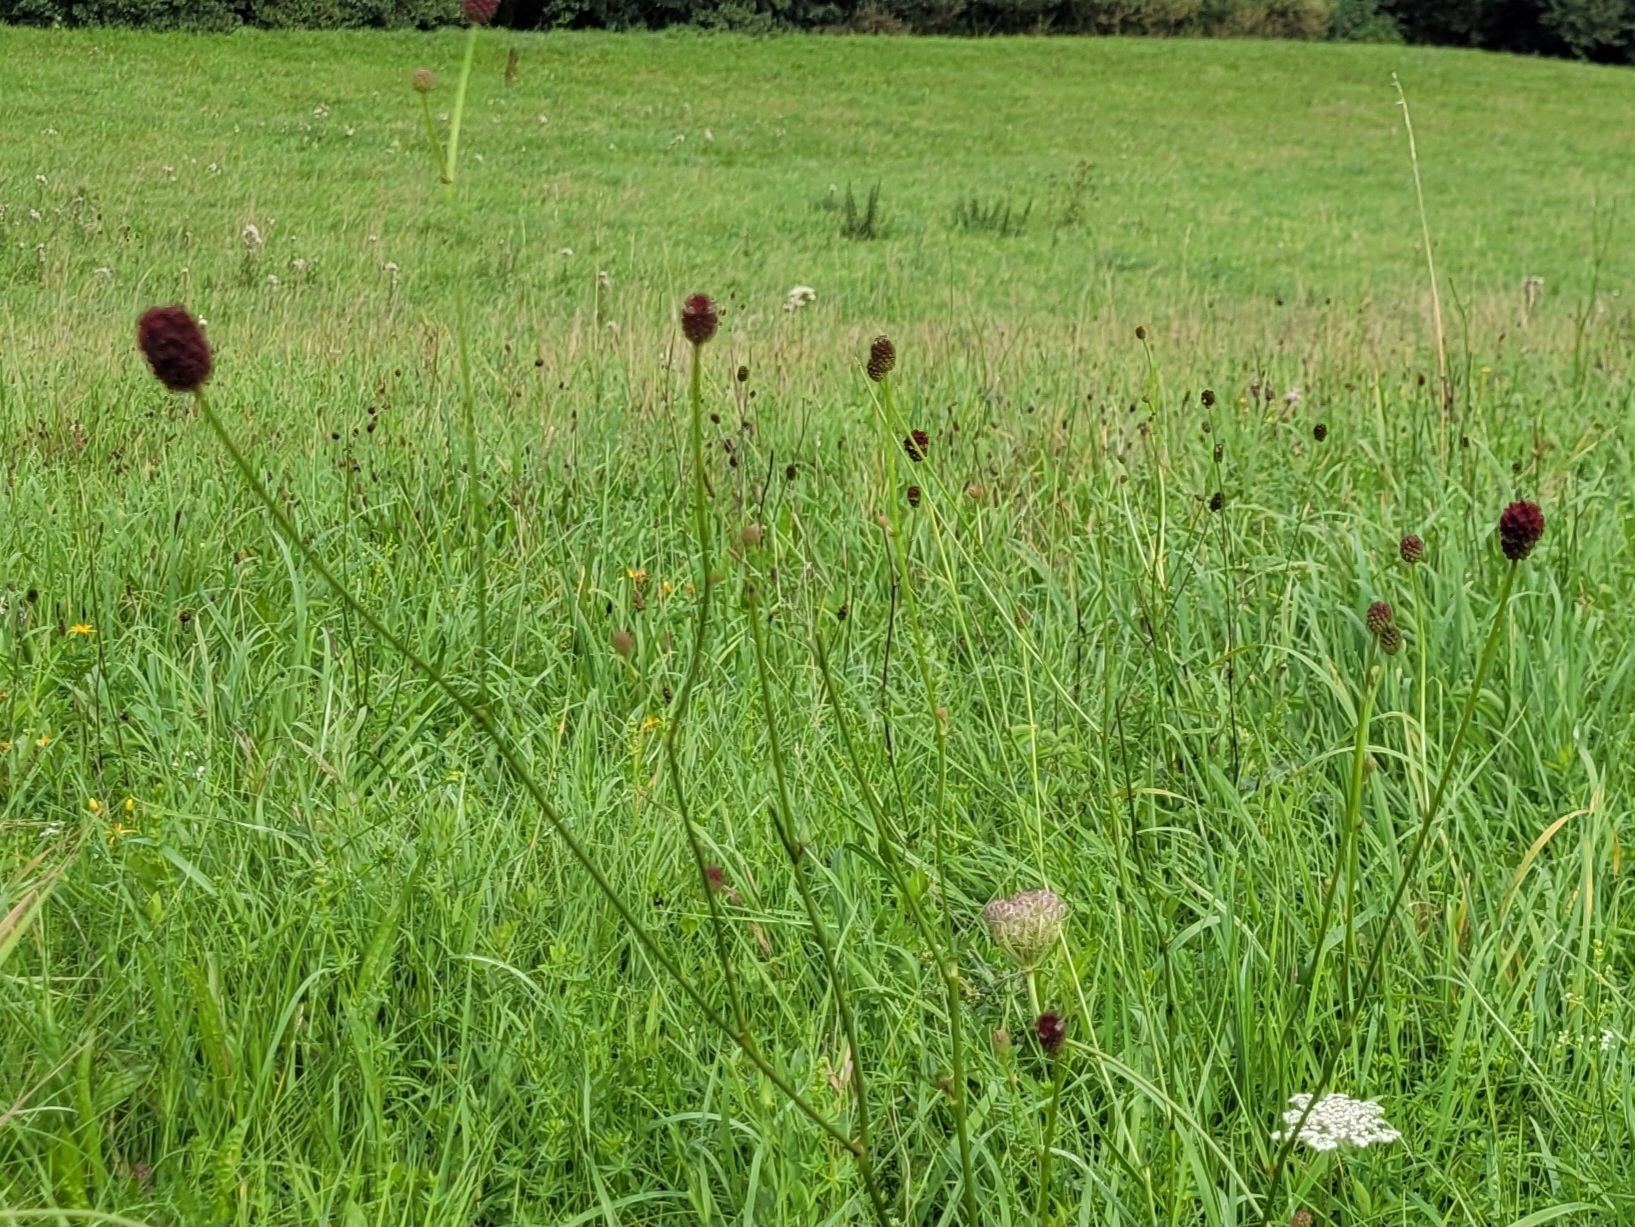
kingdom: Plantae
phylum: Tracheophyta
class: Magnoliopsida
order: Rosales
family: Rosaceae
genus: Sanguisorba
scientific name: Sanguisorba officinalis
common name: Great burnet
